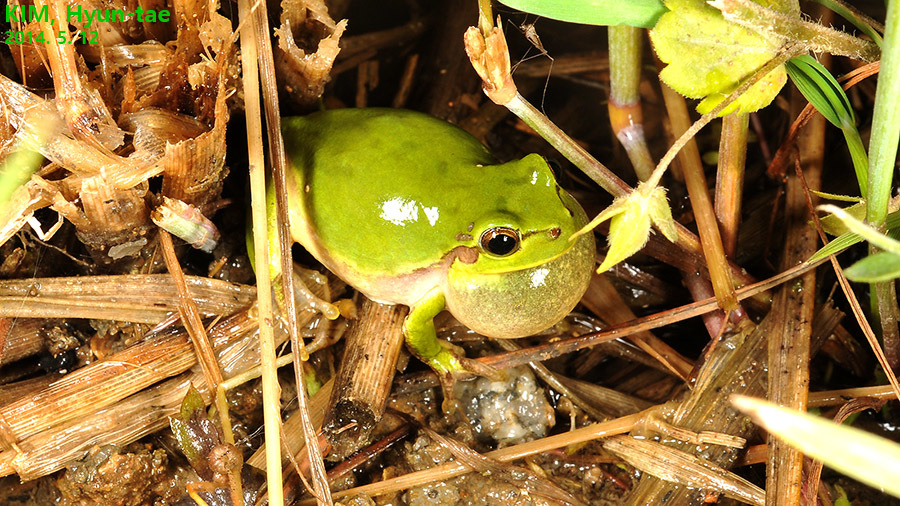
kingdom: Animalia
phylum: Chordata
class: Amphibia
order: Anura
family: Hylidae
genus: Dryophytes
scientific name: Dryophytes japonicus
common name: Japanese treefrog
